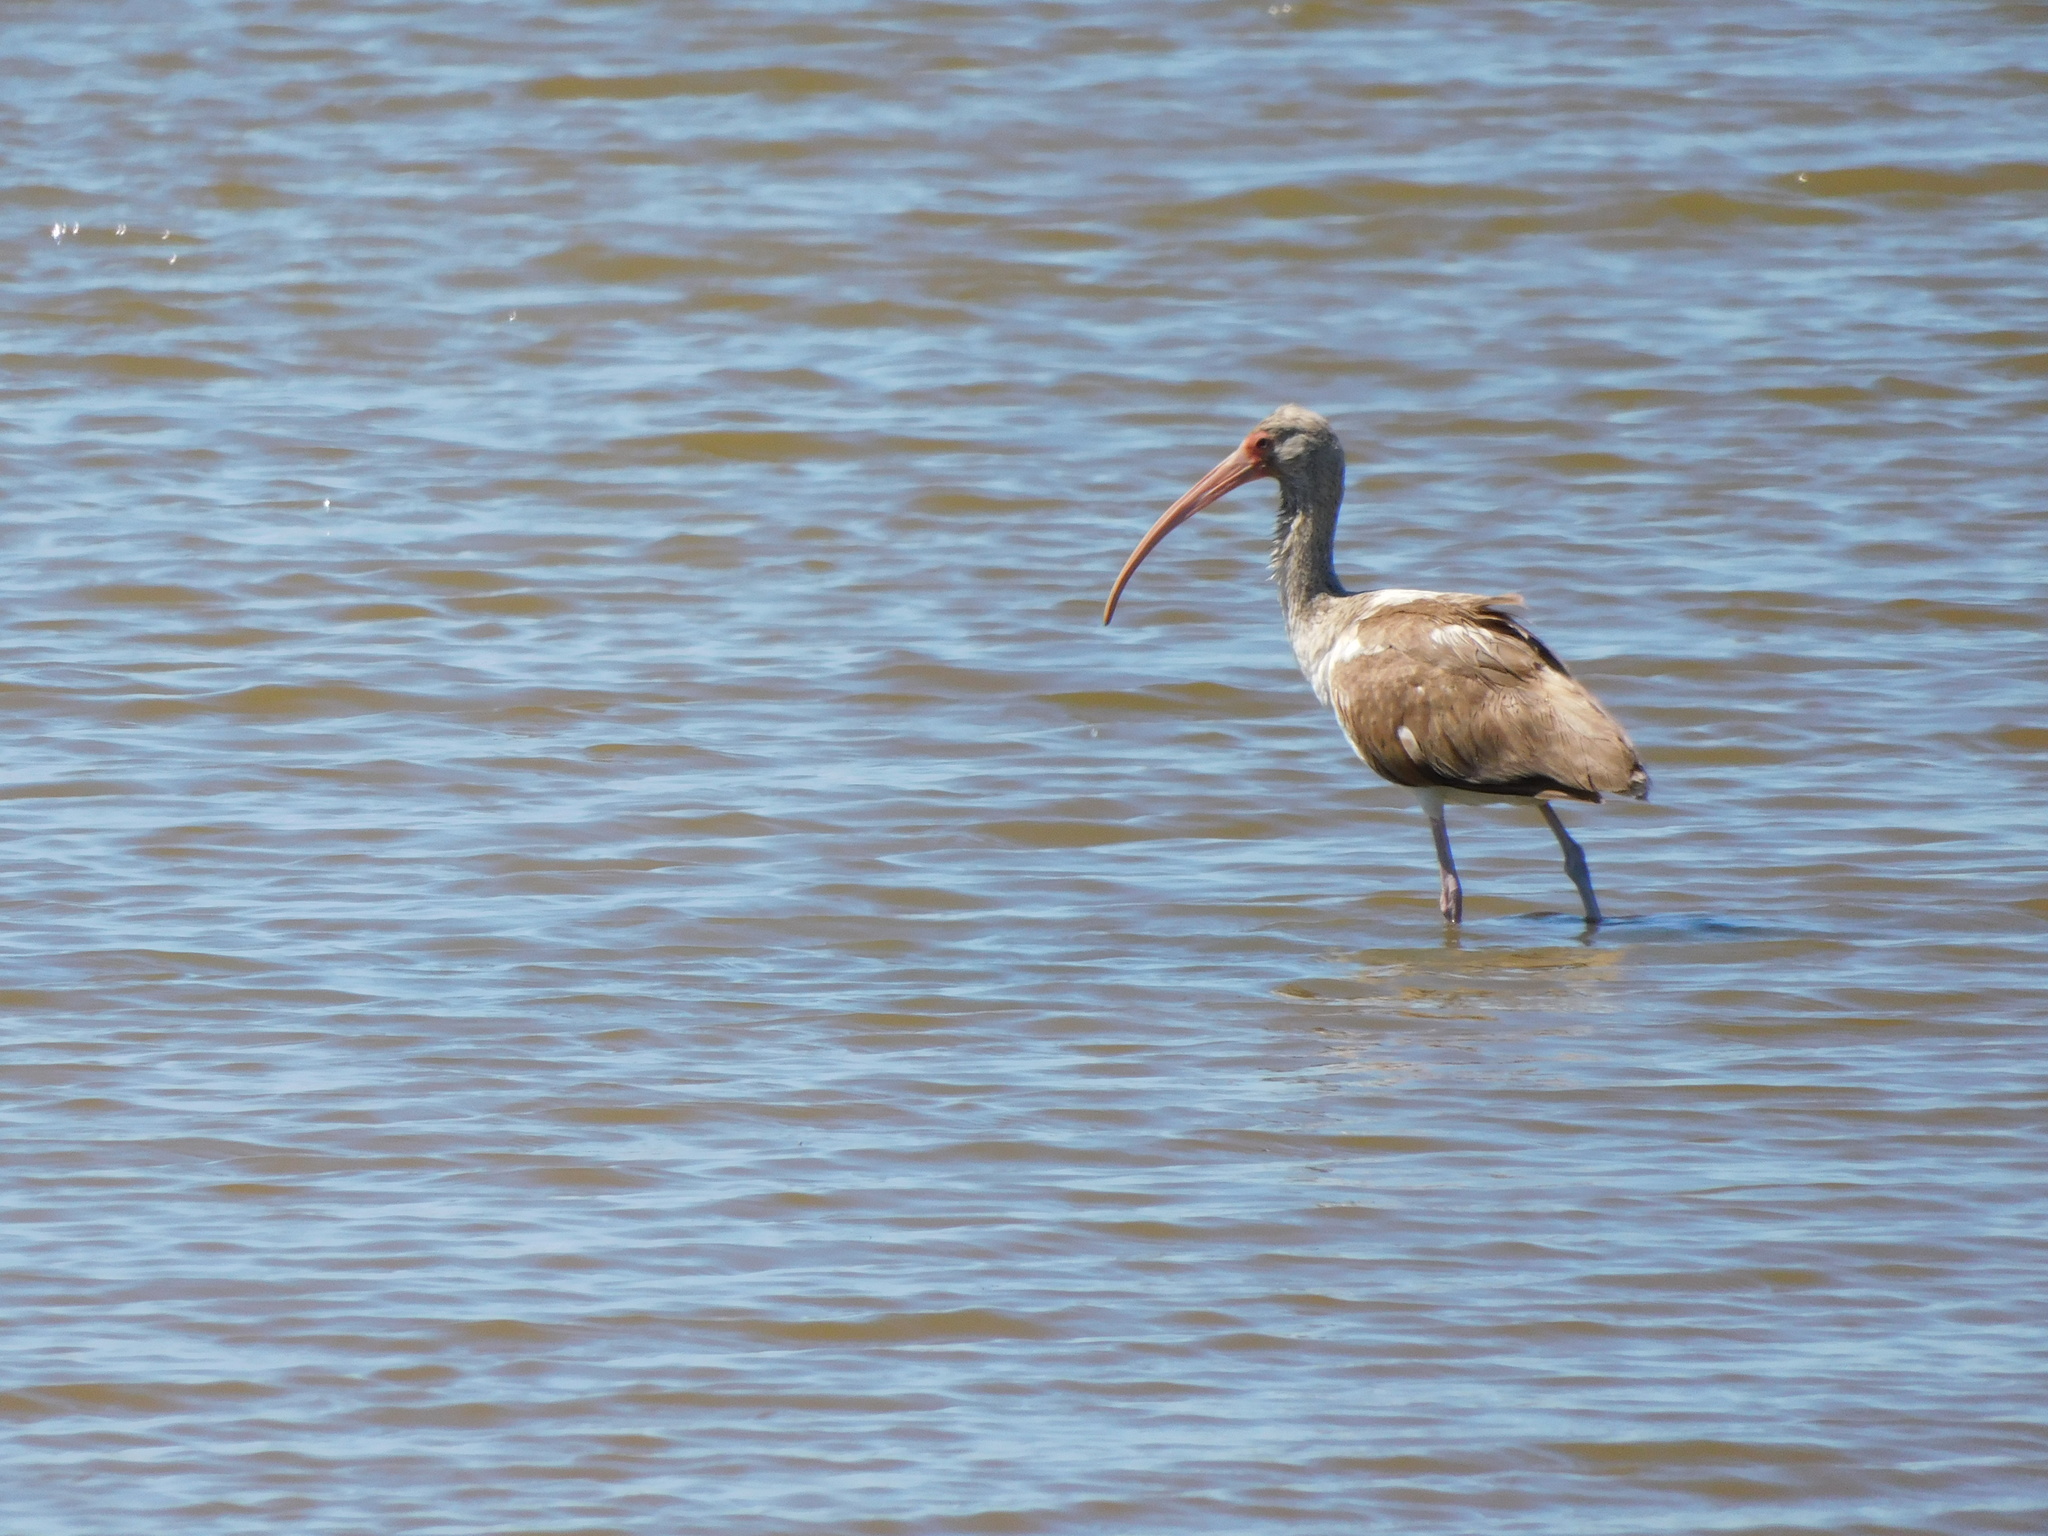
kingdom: Animalia
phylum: Chordata
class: Aves
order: Pelecaniformes
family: Threskiornithidae
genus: Eudocimus
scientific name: Eudocimus albus
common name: White ibis
